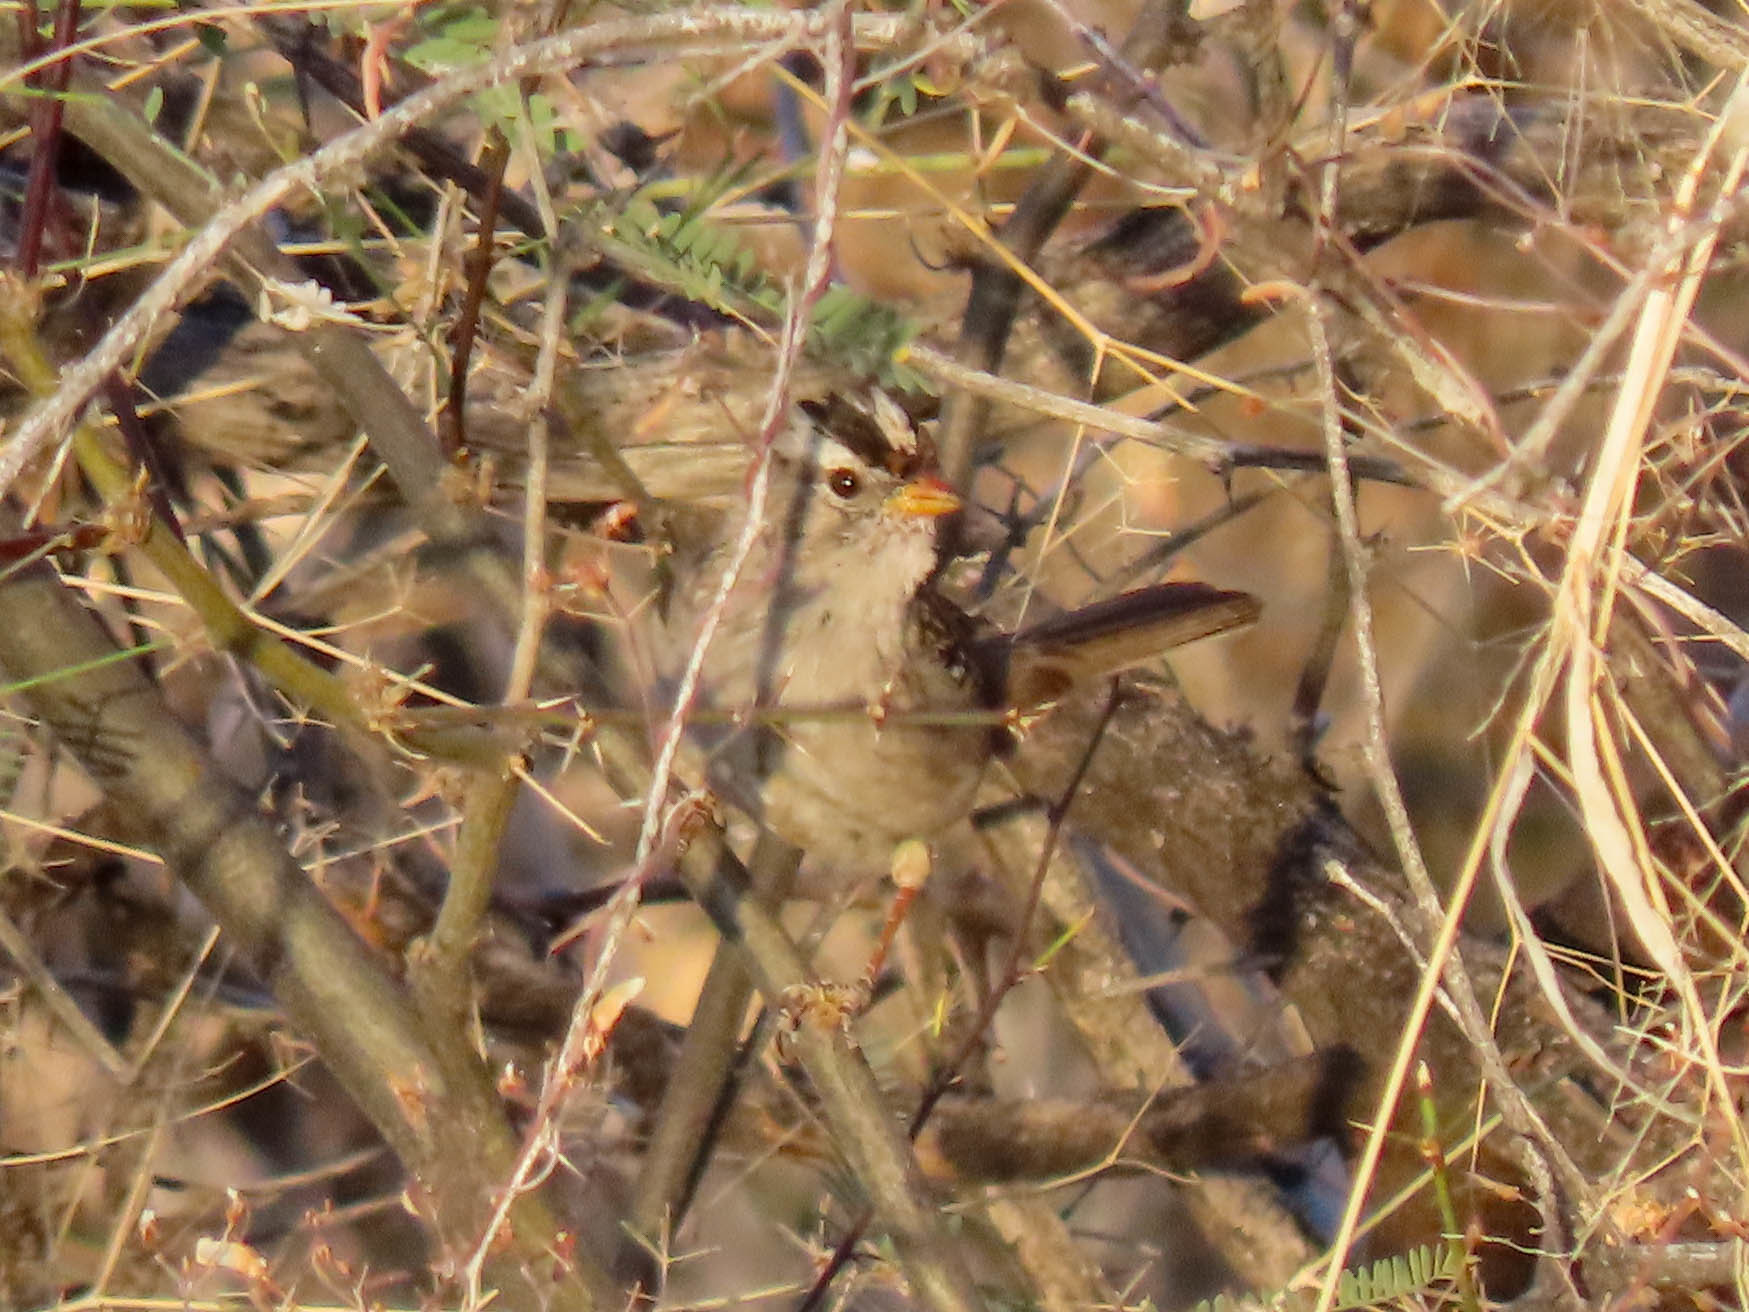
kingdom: Animalia
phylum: Chordata
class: Aves
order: Passeriformes
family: Passerellidae
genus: Zonotrichia
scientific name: Zonotrichia leucophrys
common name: White-crowned sparrow
